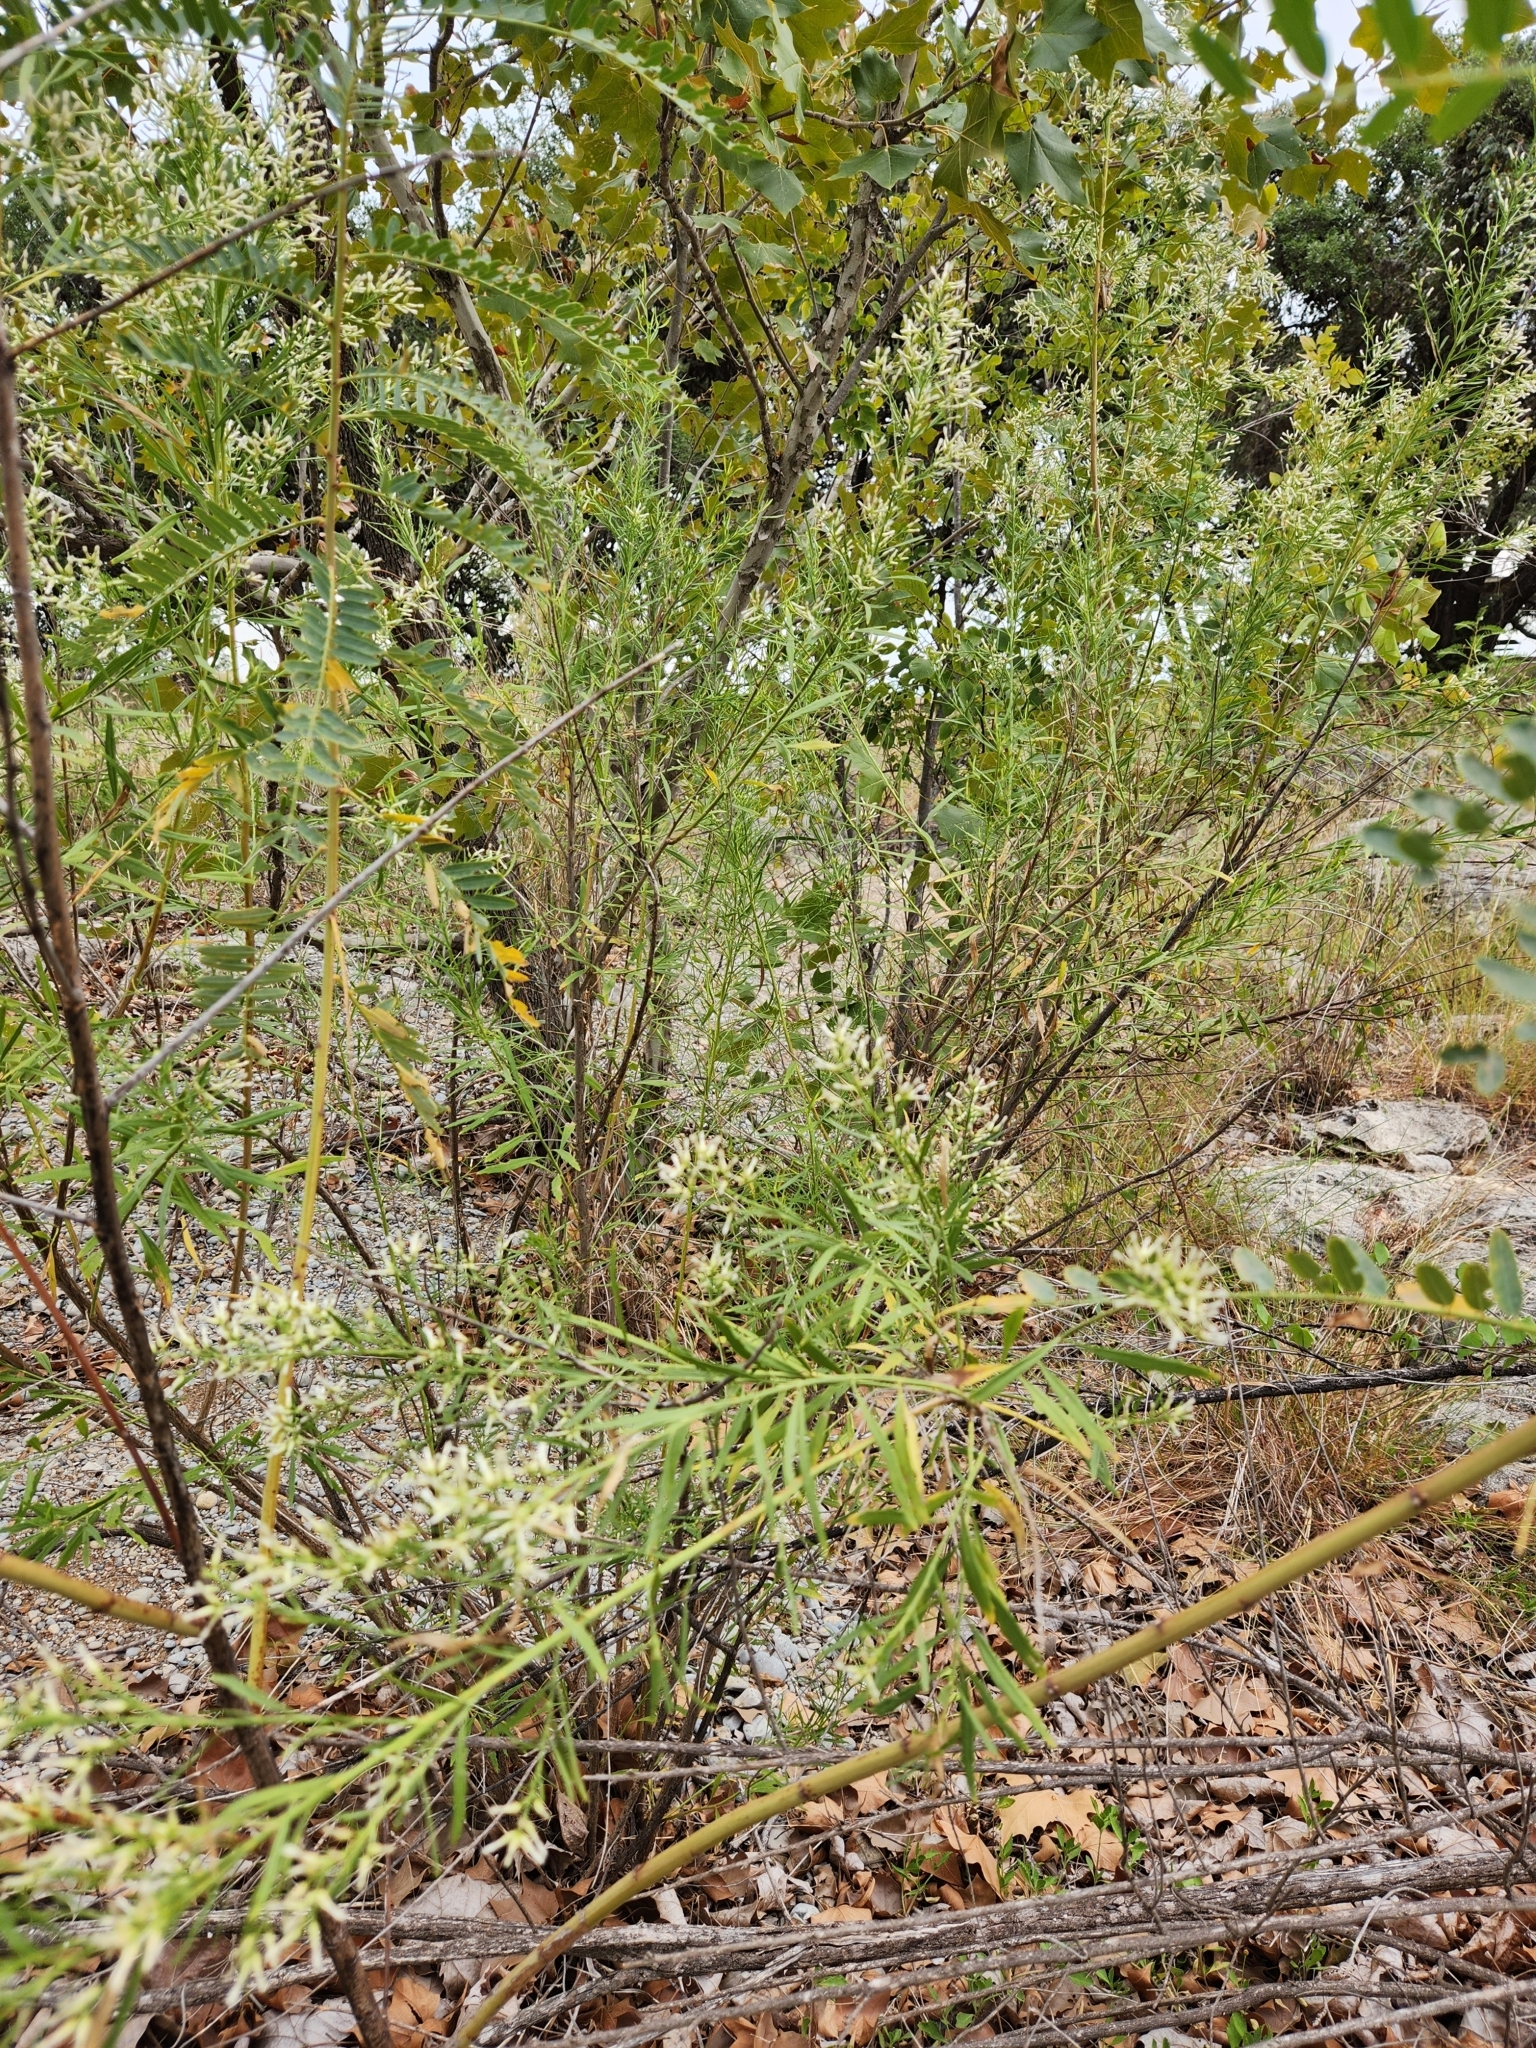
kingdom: Plantae
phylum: Tracheophyta
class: Magnoliopsida
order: Asterales
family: Asteraceae
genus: Baccharis
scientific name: Baccharis neglecta
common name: Roosevelt-weed
